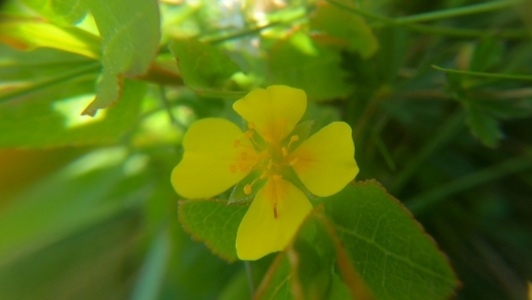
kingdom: Plantae
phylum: Tracheophyta
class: Magnoliopsida
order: Rosales
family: Rosaceae
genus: Potentilla
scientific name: Potentilla erecta
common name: Tormentil
